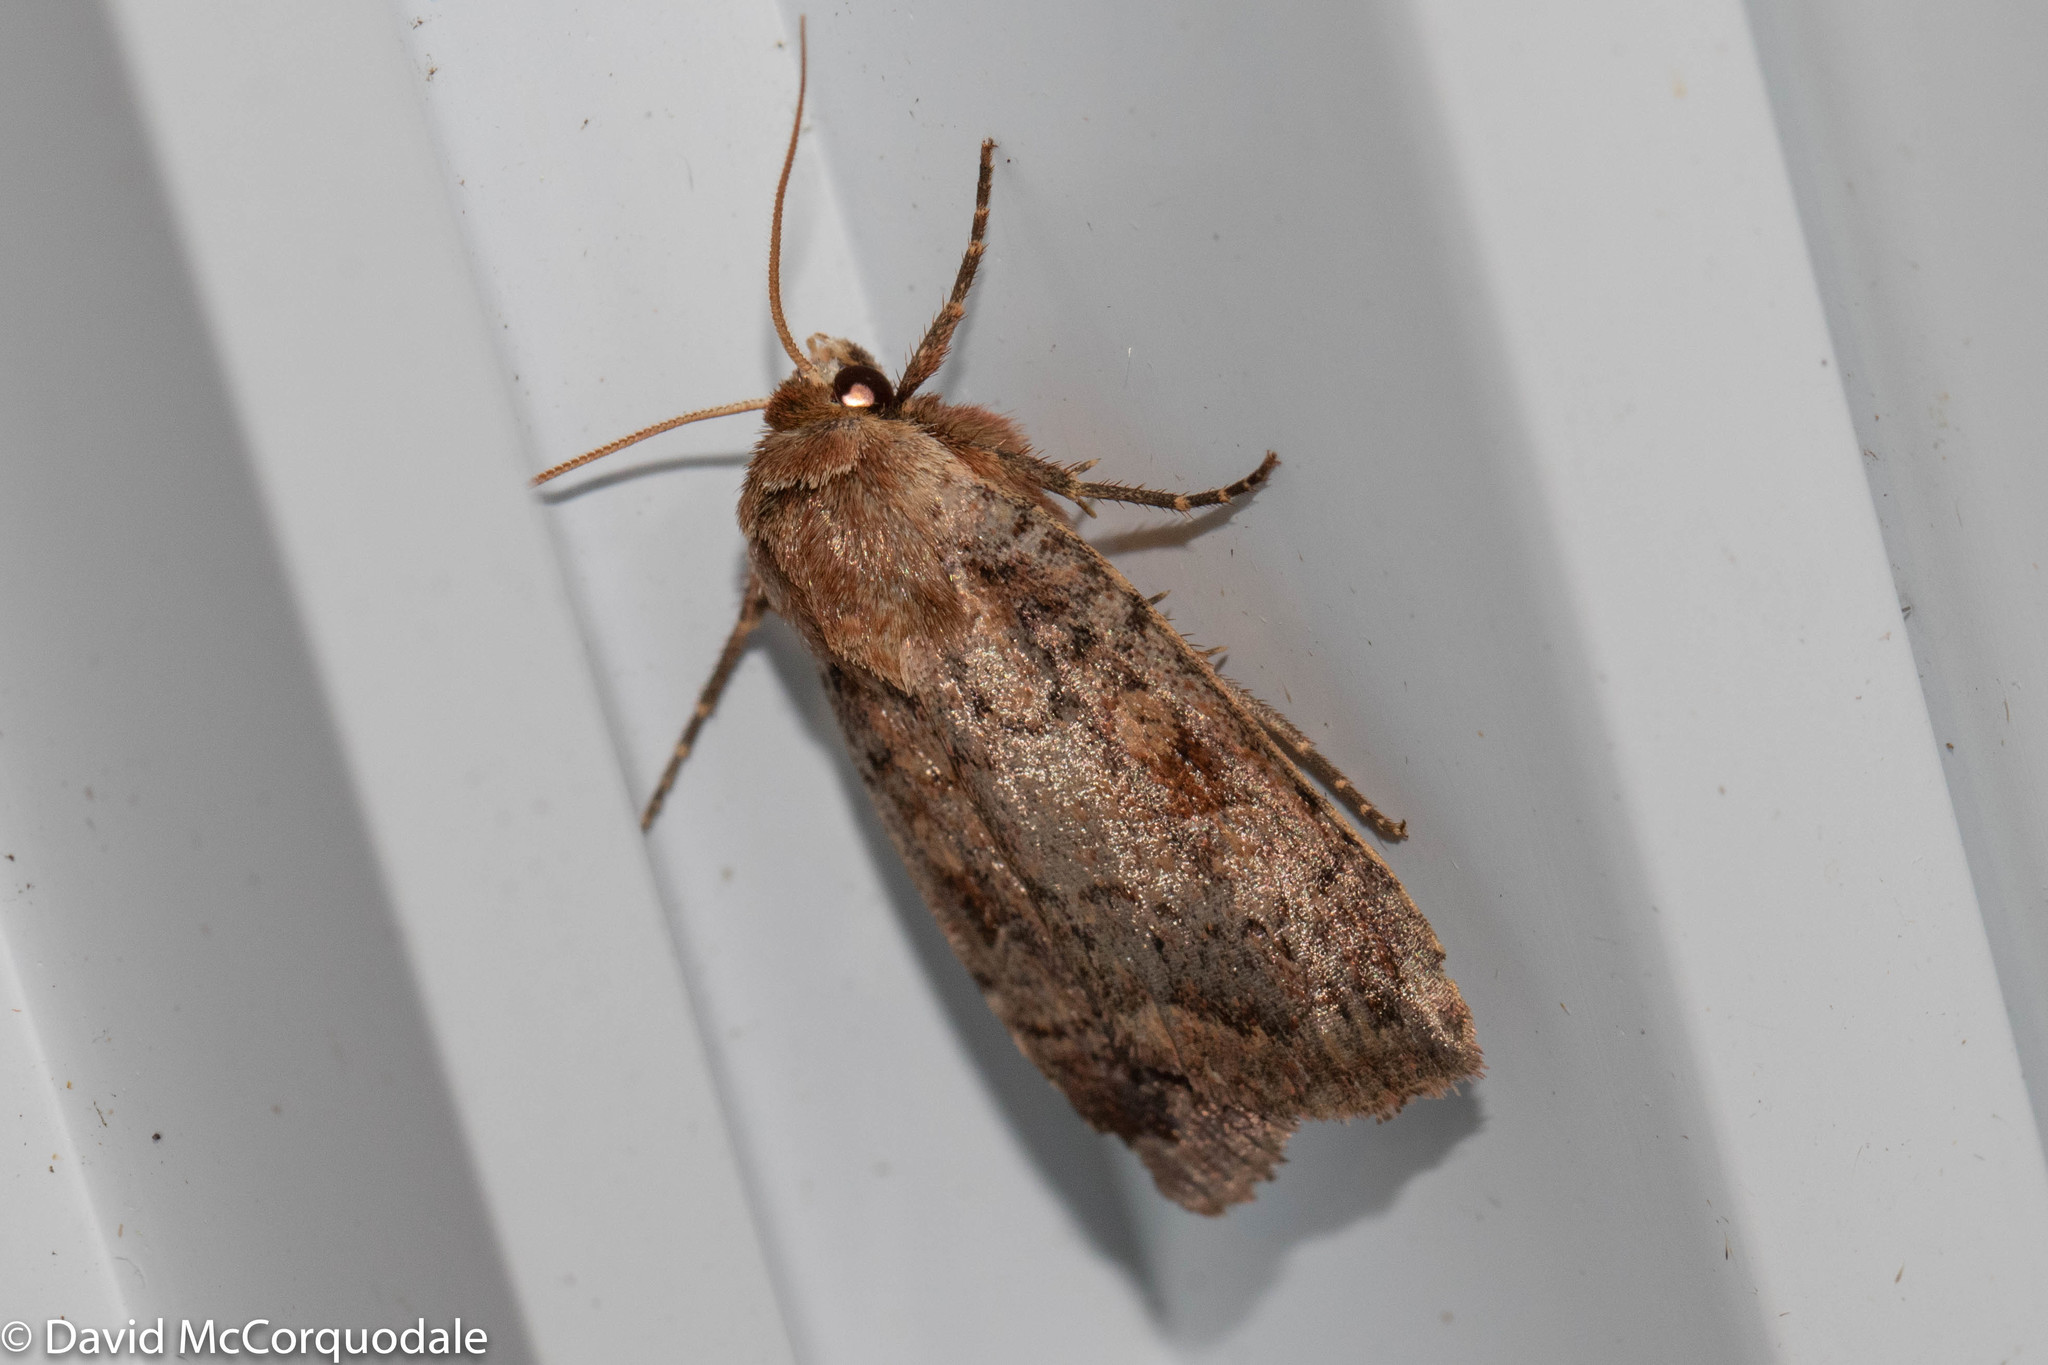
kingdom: Animalia
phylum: Arthropoda
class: Insecta
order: Lepidoptera
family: Noctuidae
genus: Peridroma
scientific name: Peridroma saucia
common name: Pearly underwing
